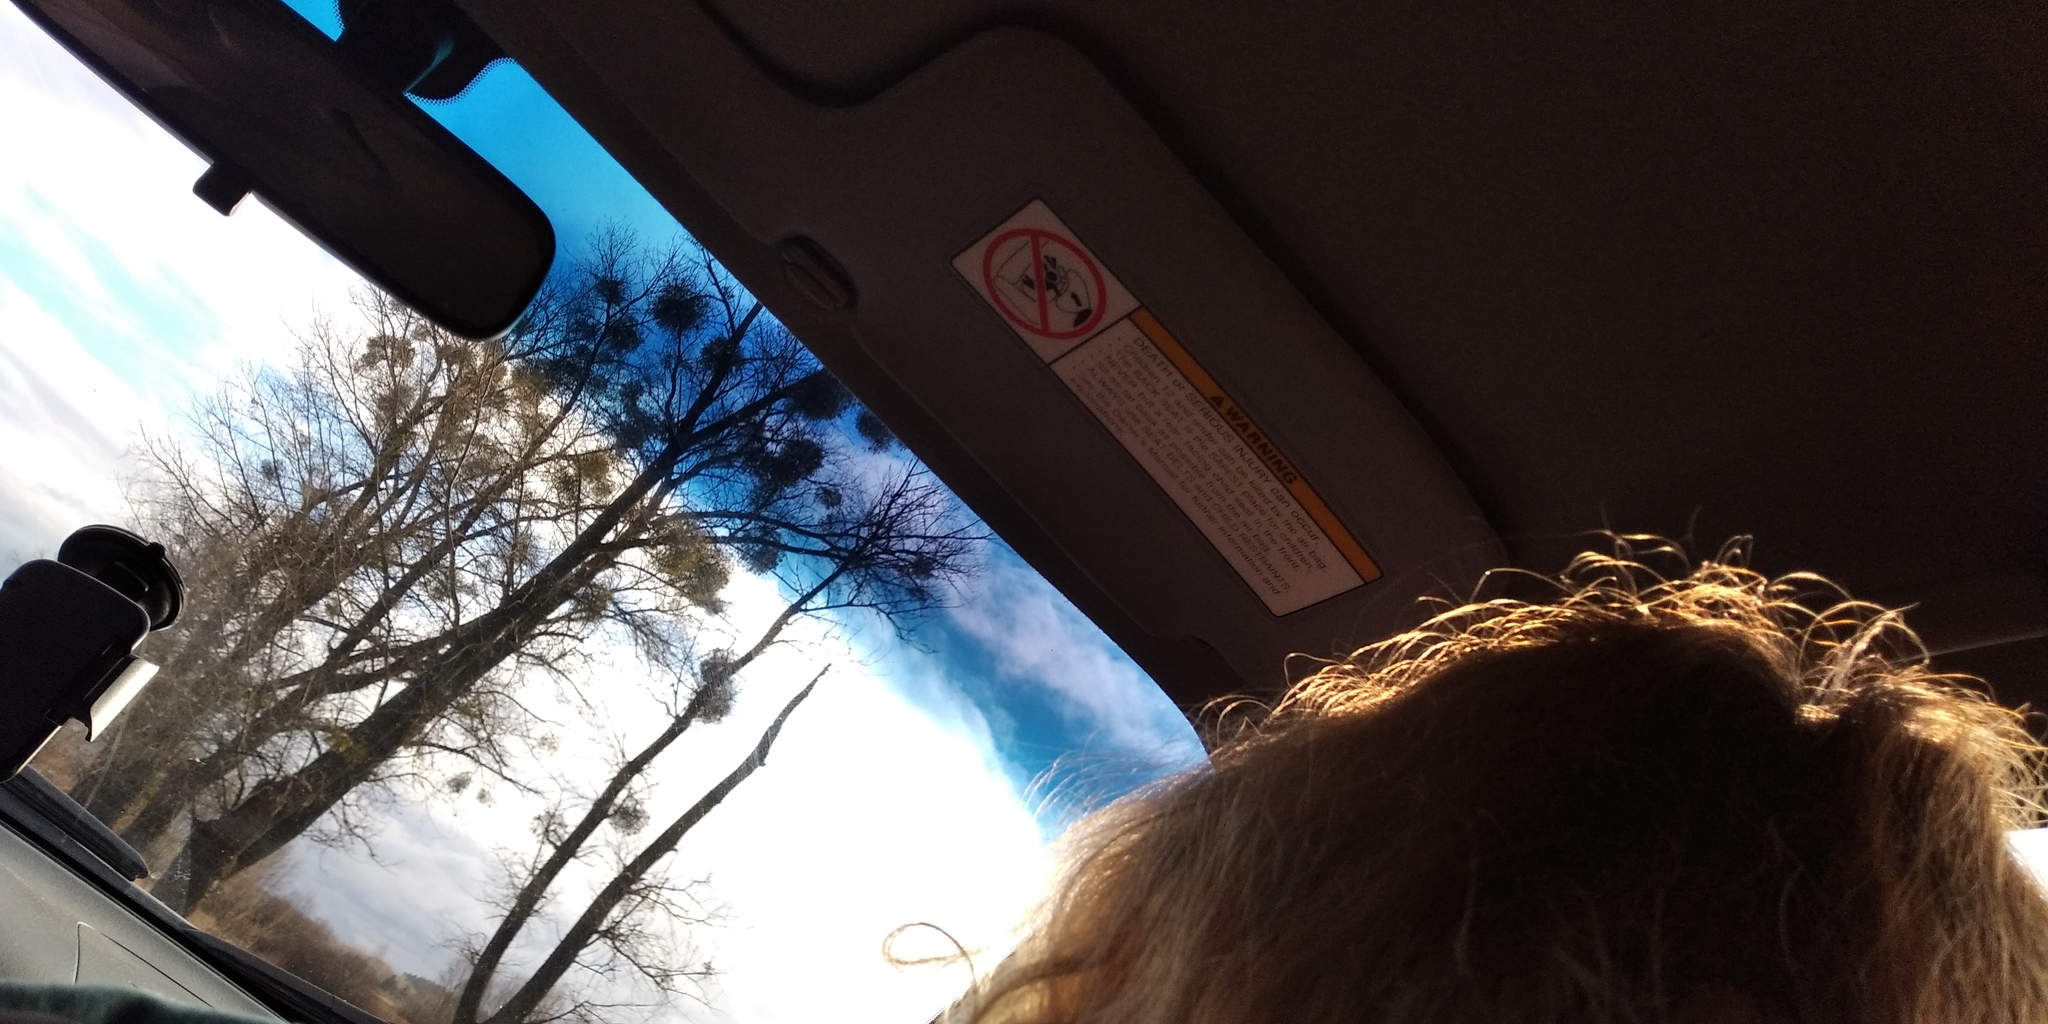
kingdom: Plantae
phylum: Tracheophyta
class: Magnoliopsida
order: Santalales
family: Viscaceae
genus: Viscum
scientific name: Viscum album
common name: Mistletoe
